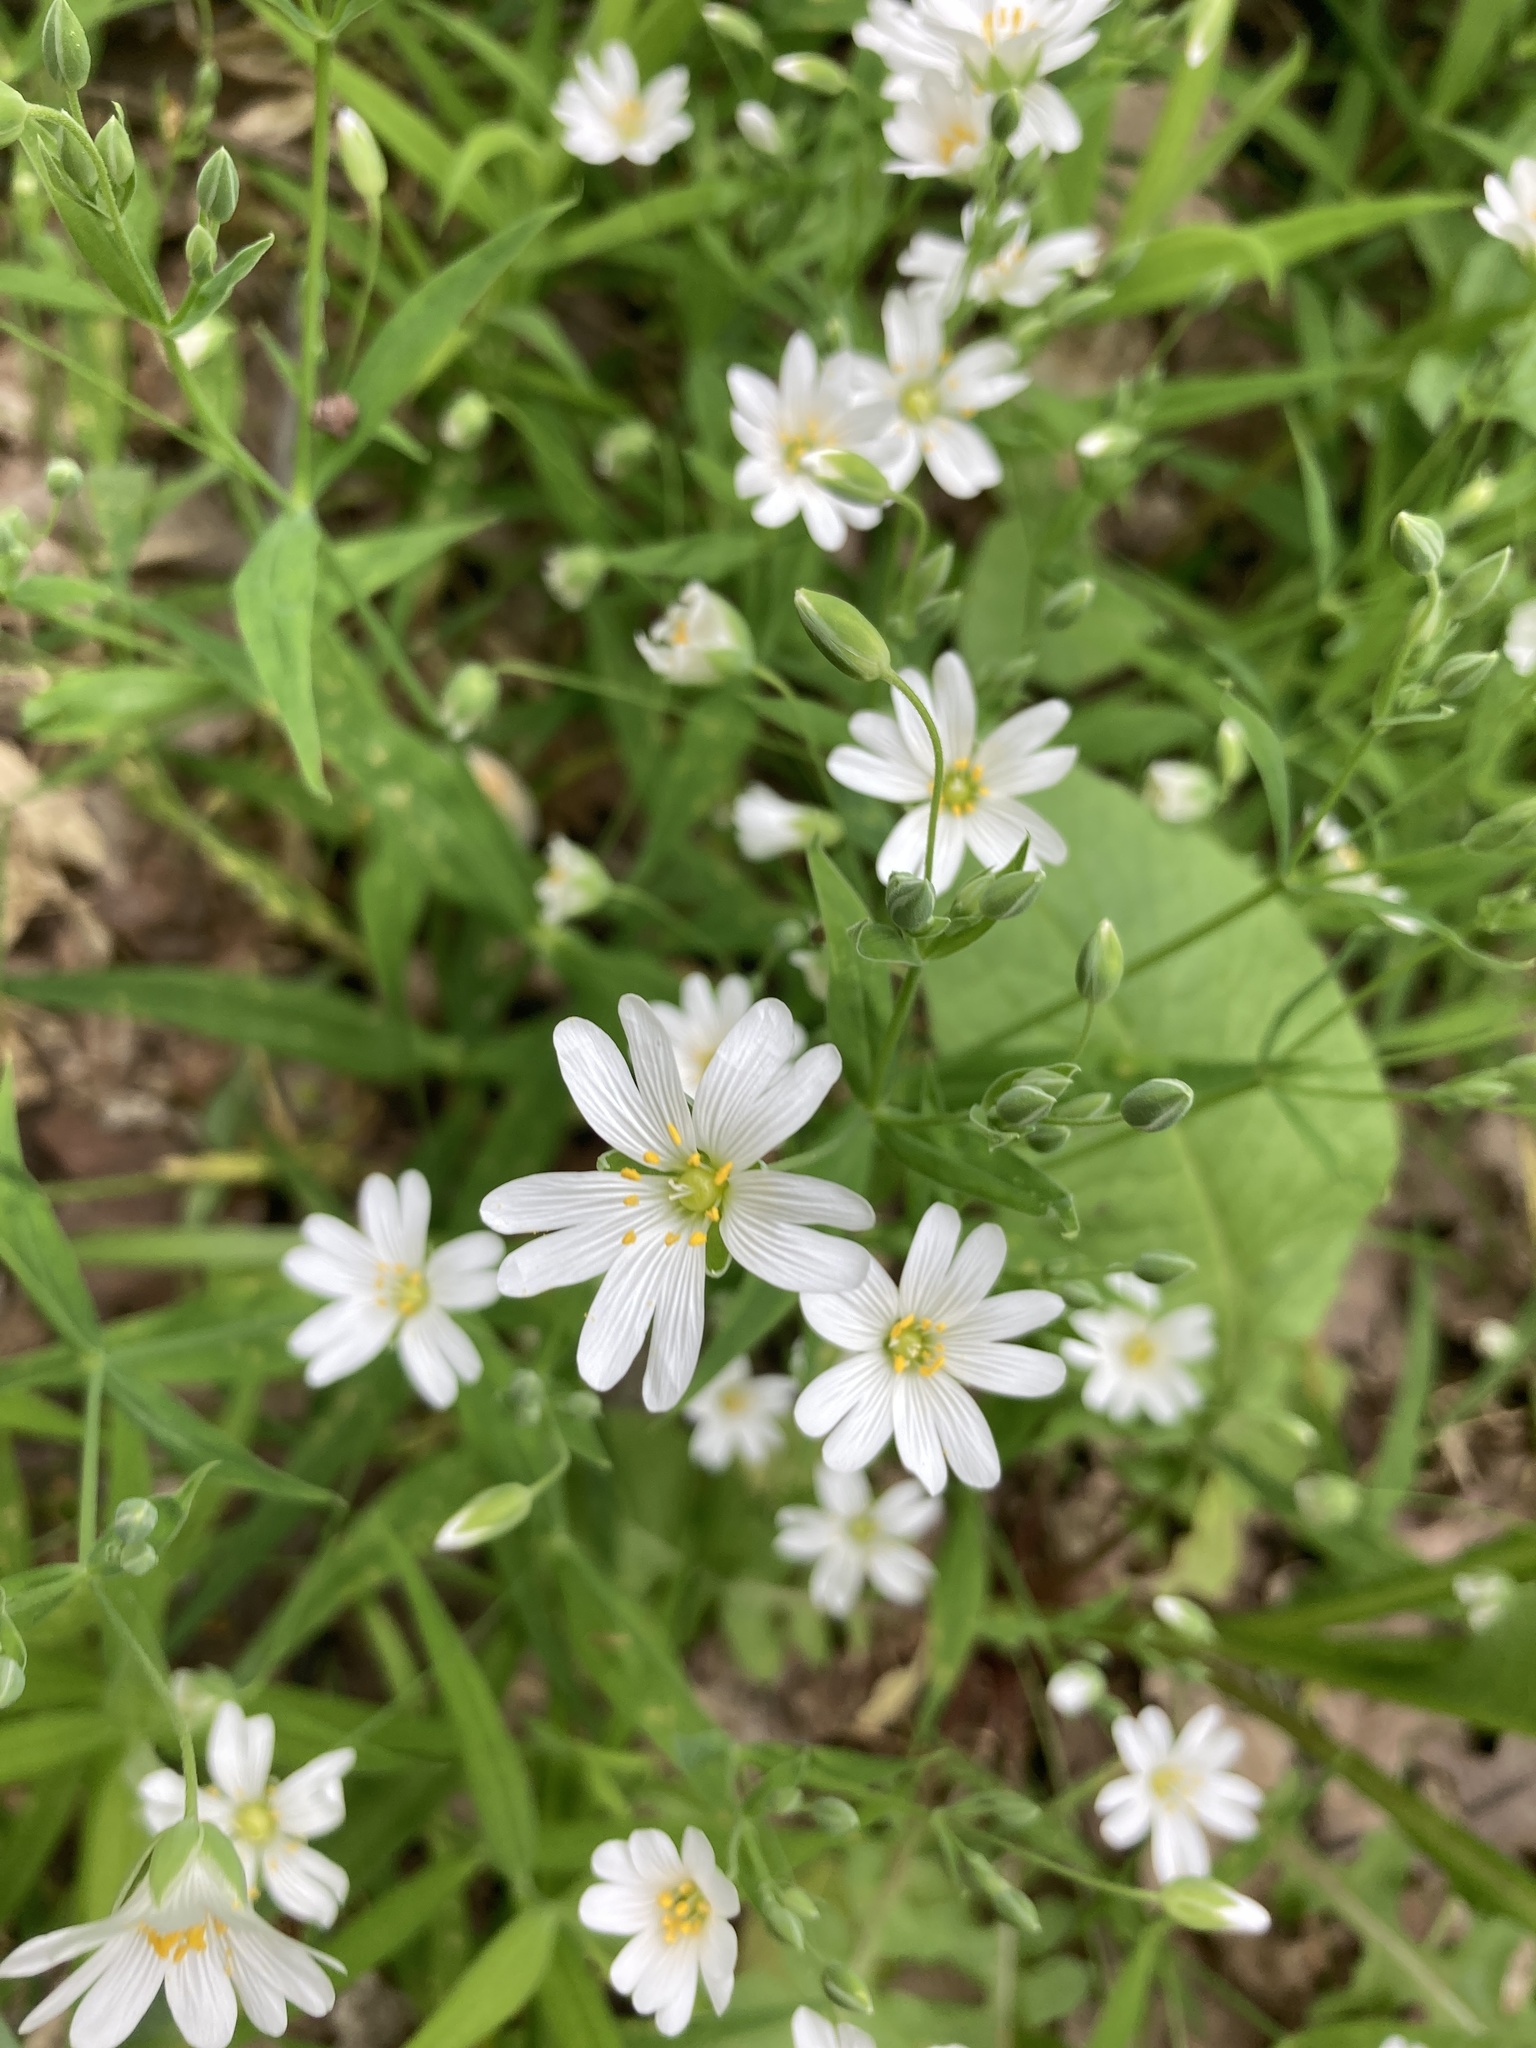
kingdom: Plantae
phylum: Tracheophyta
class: Magnoliopsida
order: Caryophyllales
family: Caryophyllaceae
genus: Rabelera
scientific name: Rabelera holostea
